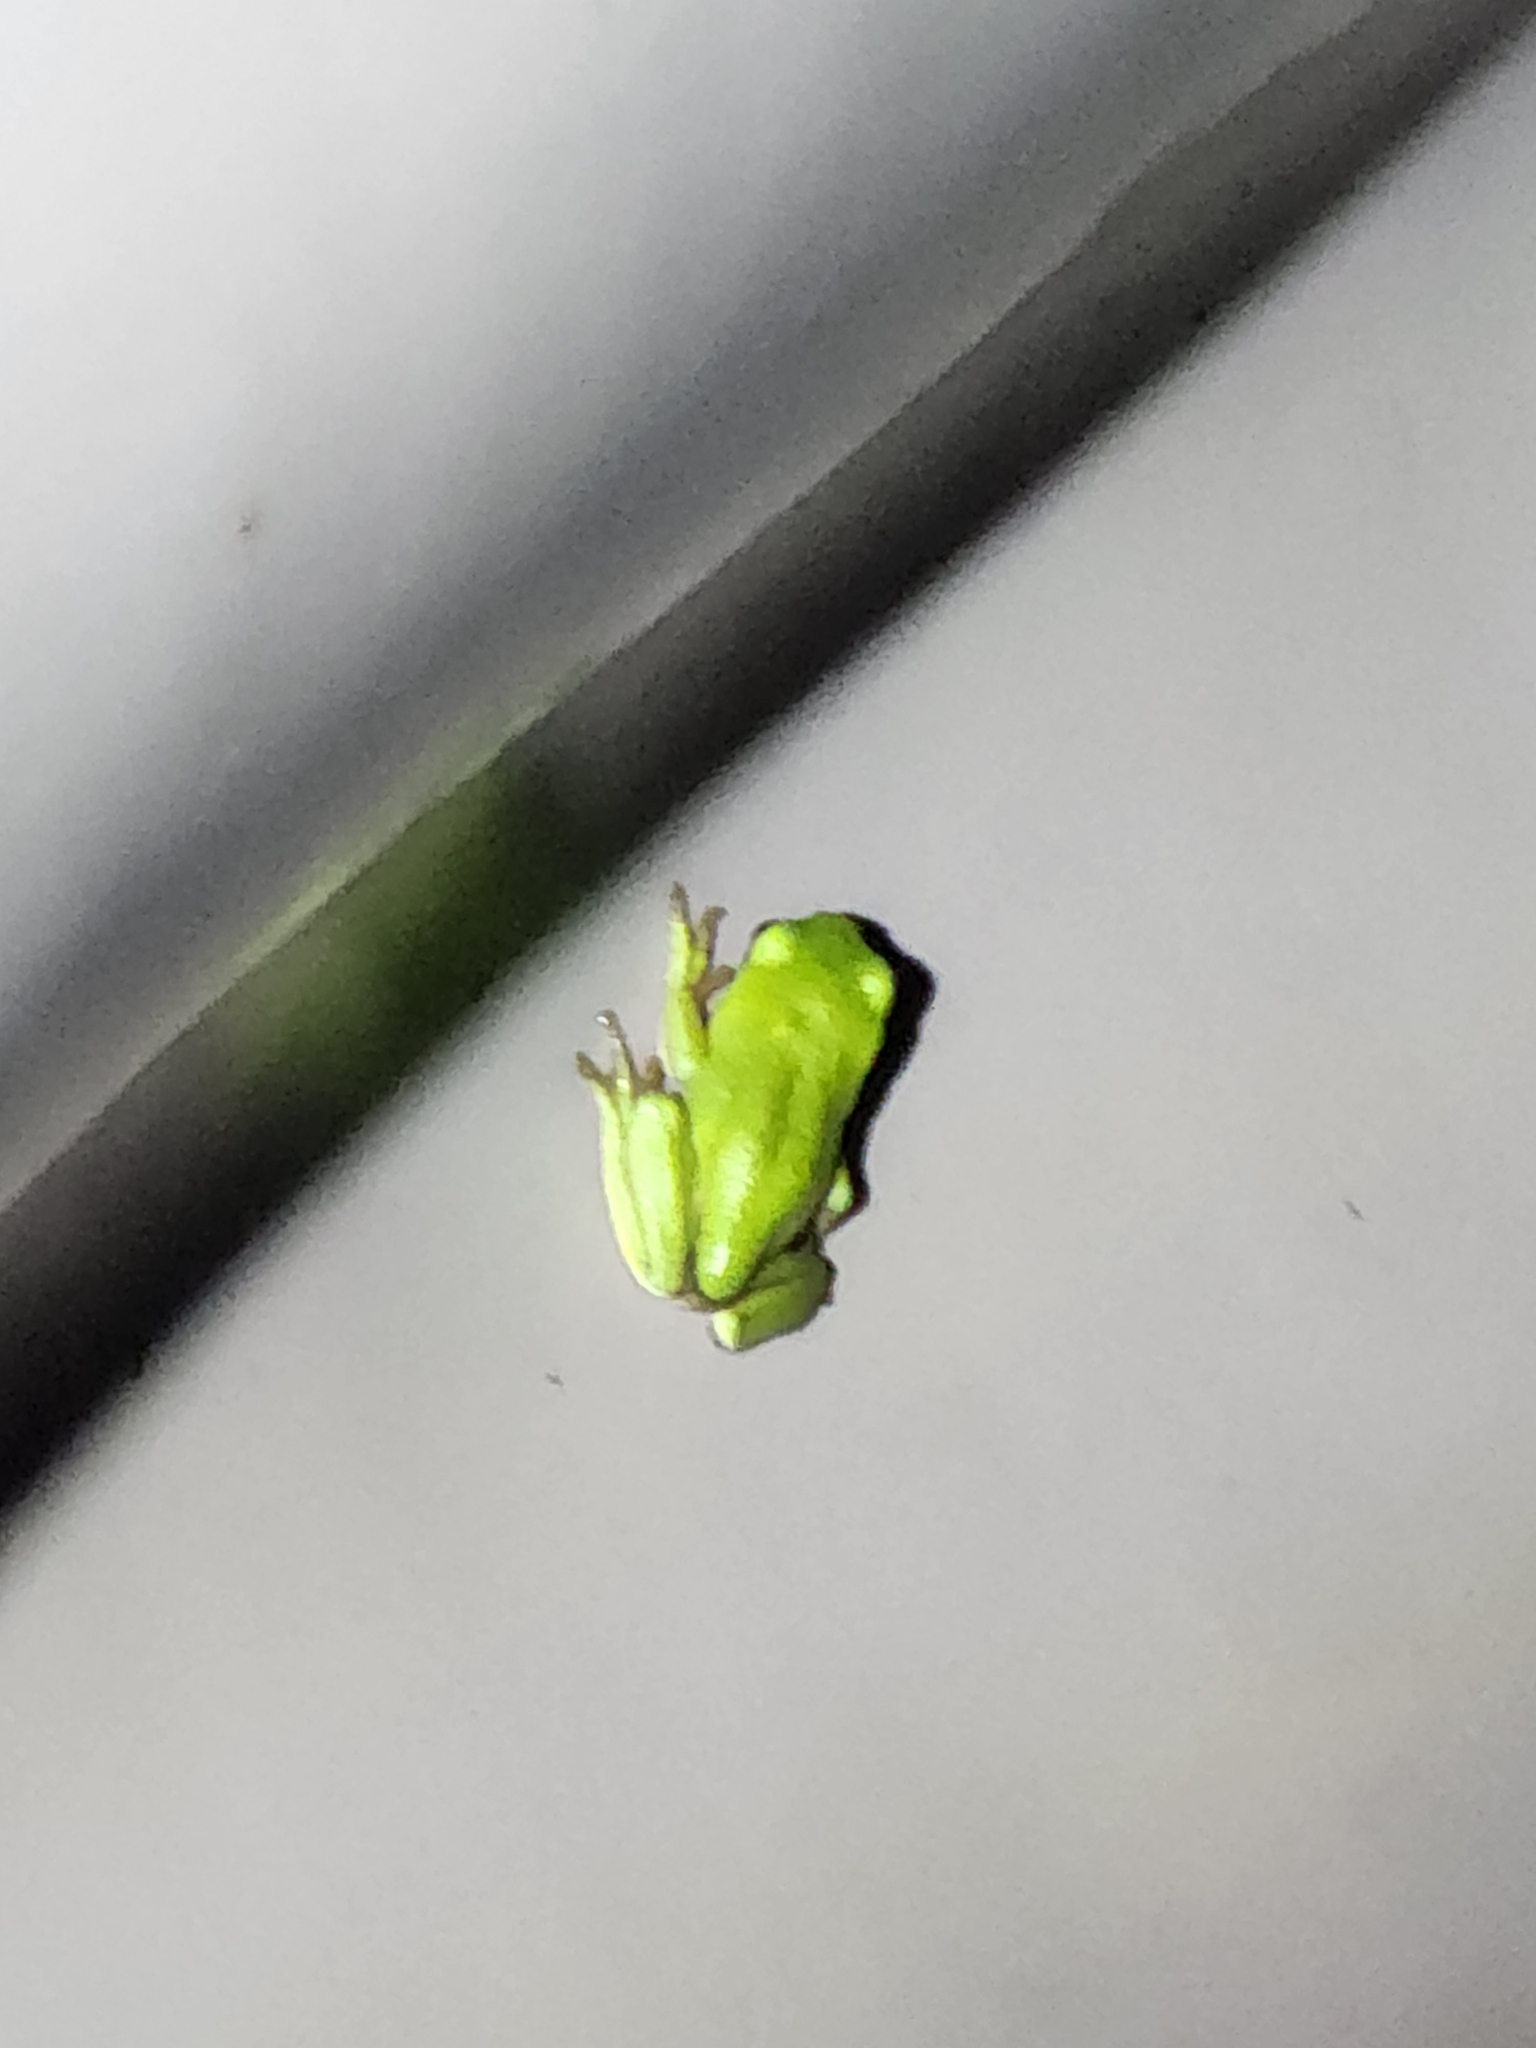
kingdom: Animalia
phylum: Chordata
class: Amphibia
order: Anura
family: Pelodryadidae
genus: Ranoidea
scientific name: Ranoidea caerulea
